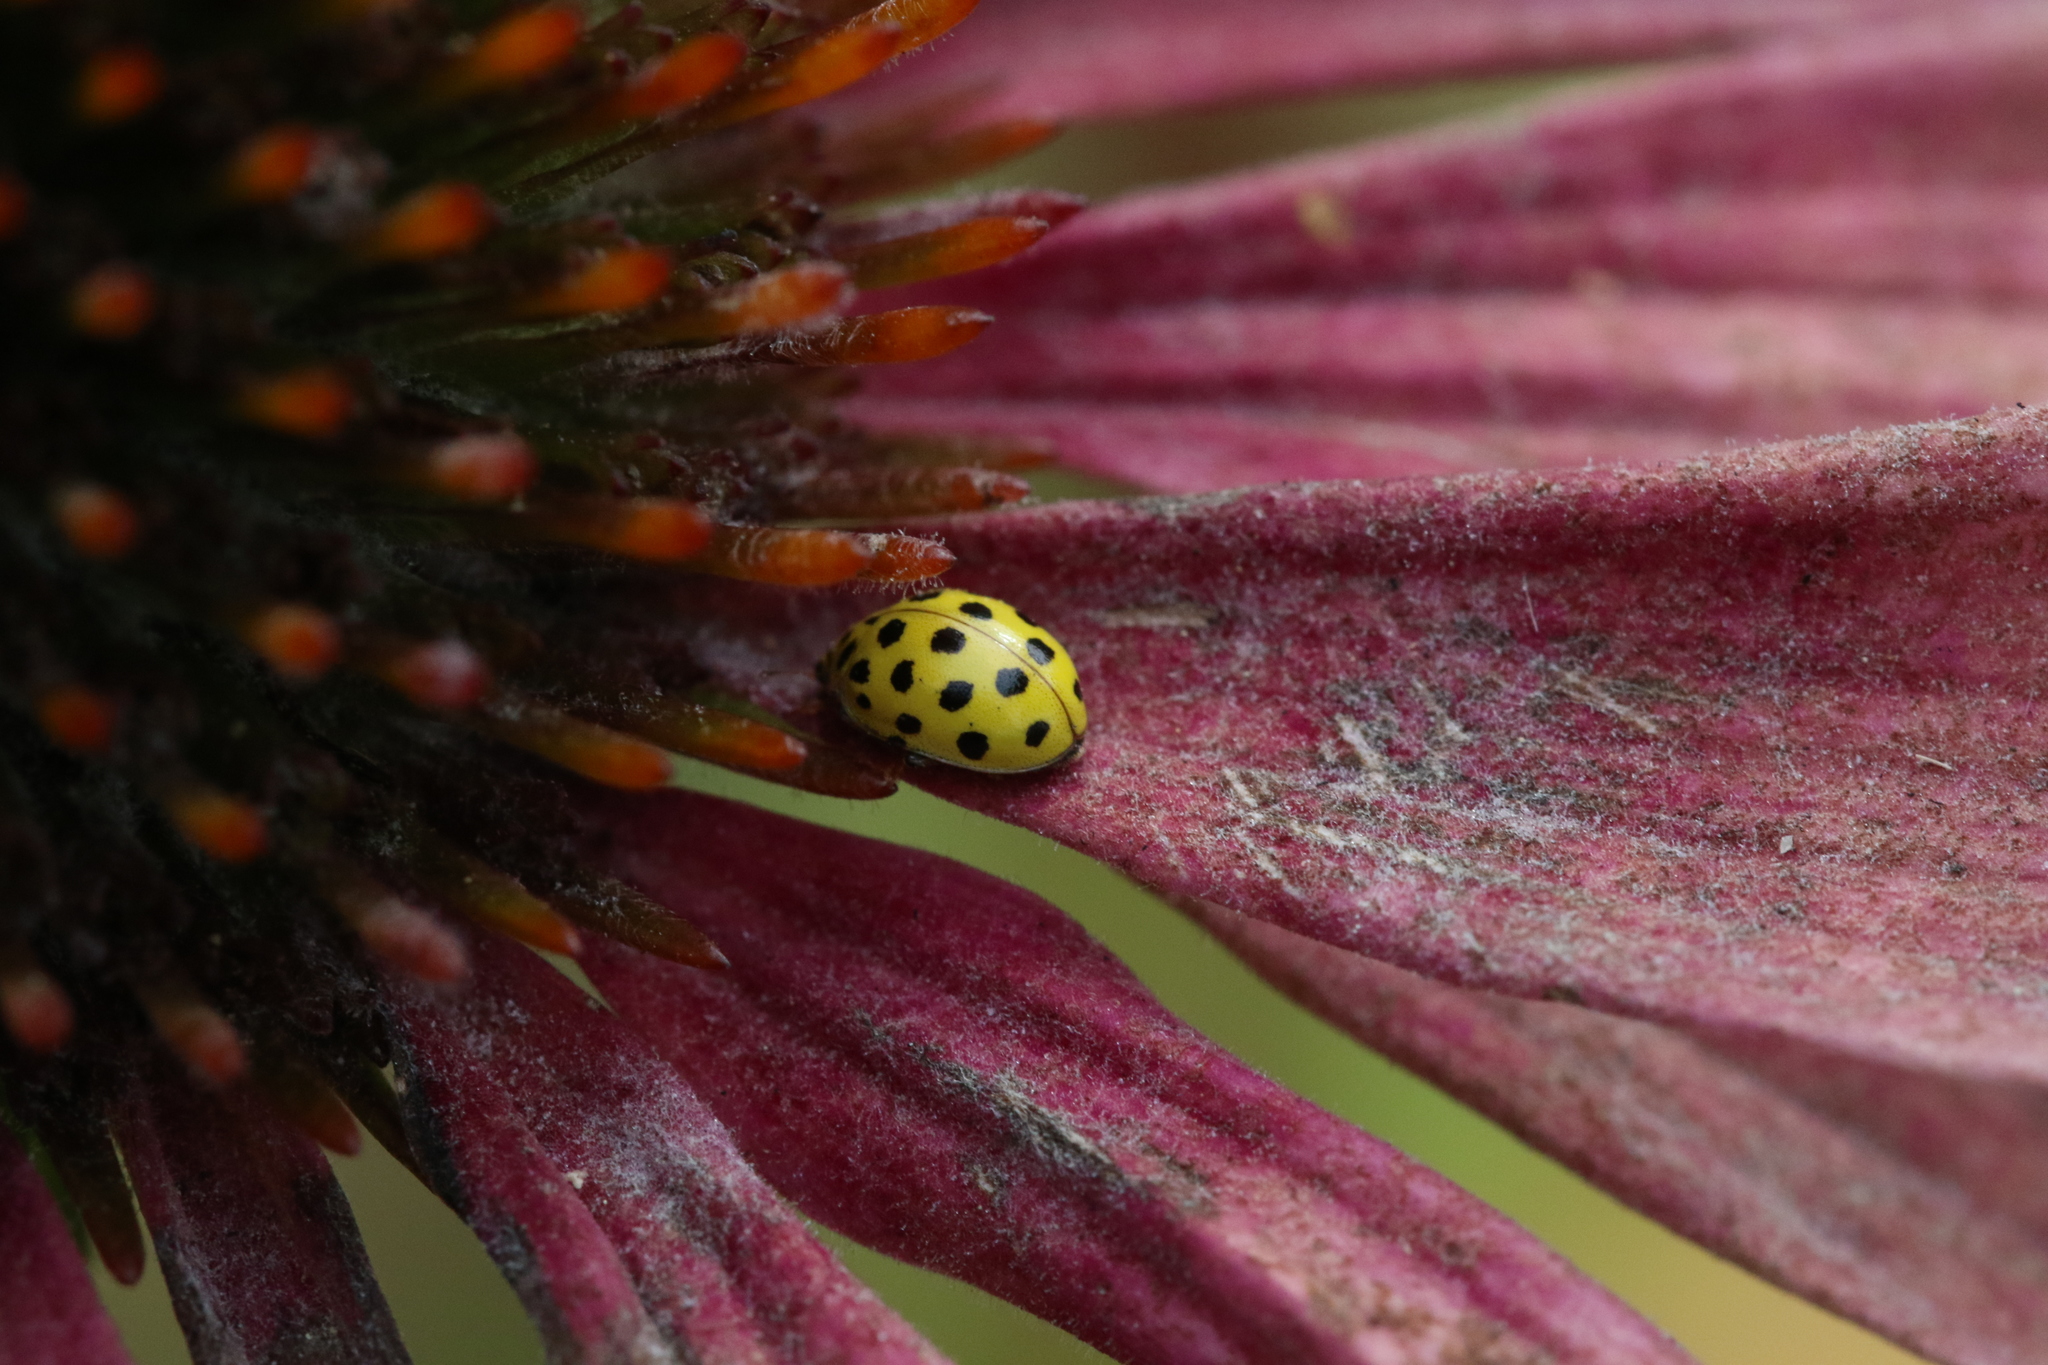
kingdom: Animalia
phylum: Arthropoda
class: Insecta
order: Coleoptera
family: Coccinellidae
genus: Psyllobora
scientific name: Psyllobora vigintiduopunctata
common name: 22-spot ladybird
